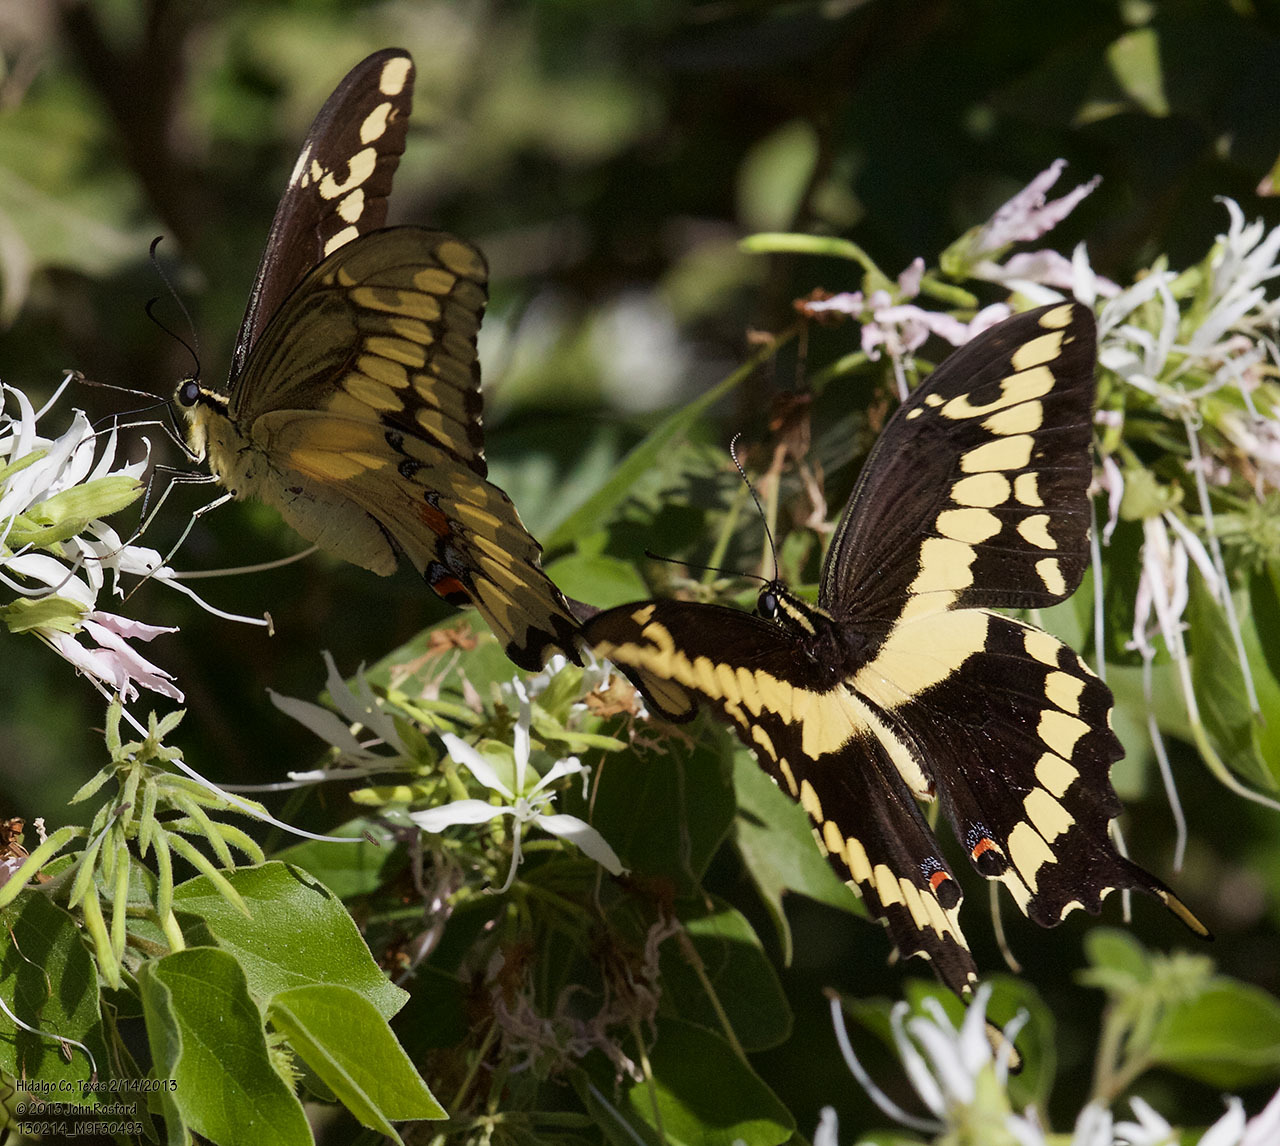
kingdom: Animalia
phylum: Arthropoda
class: Insecta
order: Lepidoptera
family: Papilionidae
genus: Papilio
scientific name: Papilio rumiko
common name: Western giant swallowtail
